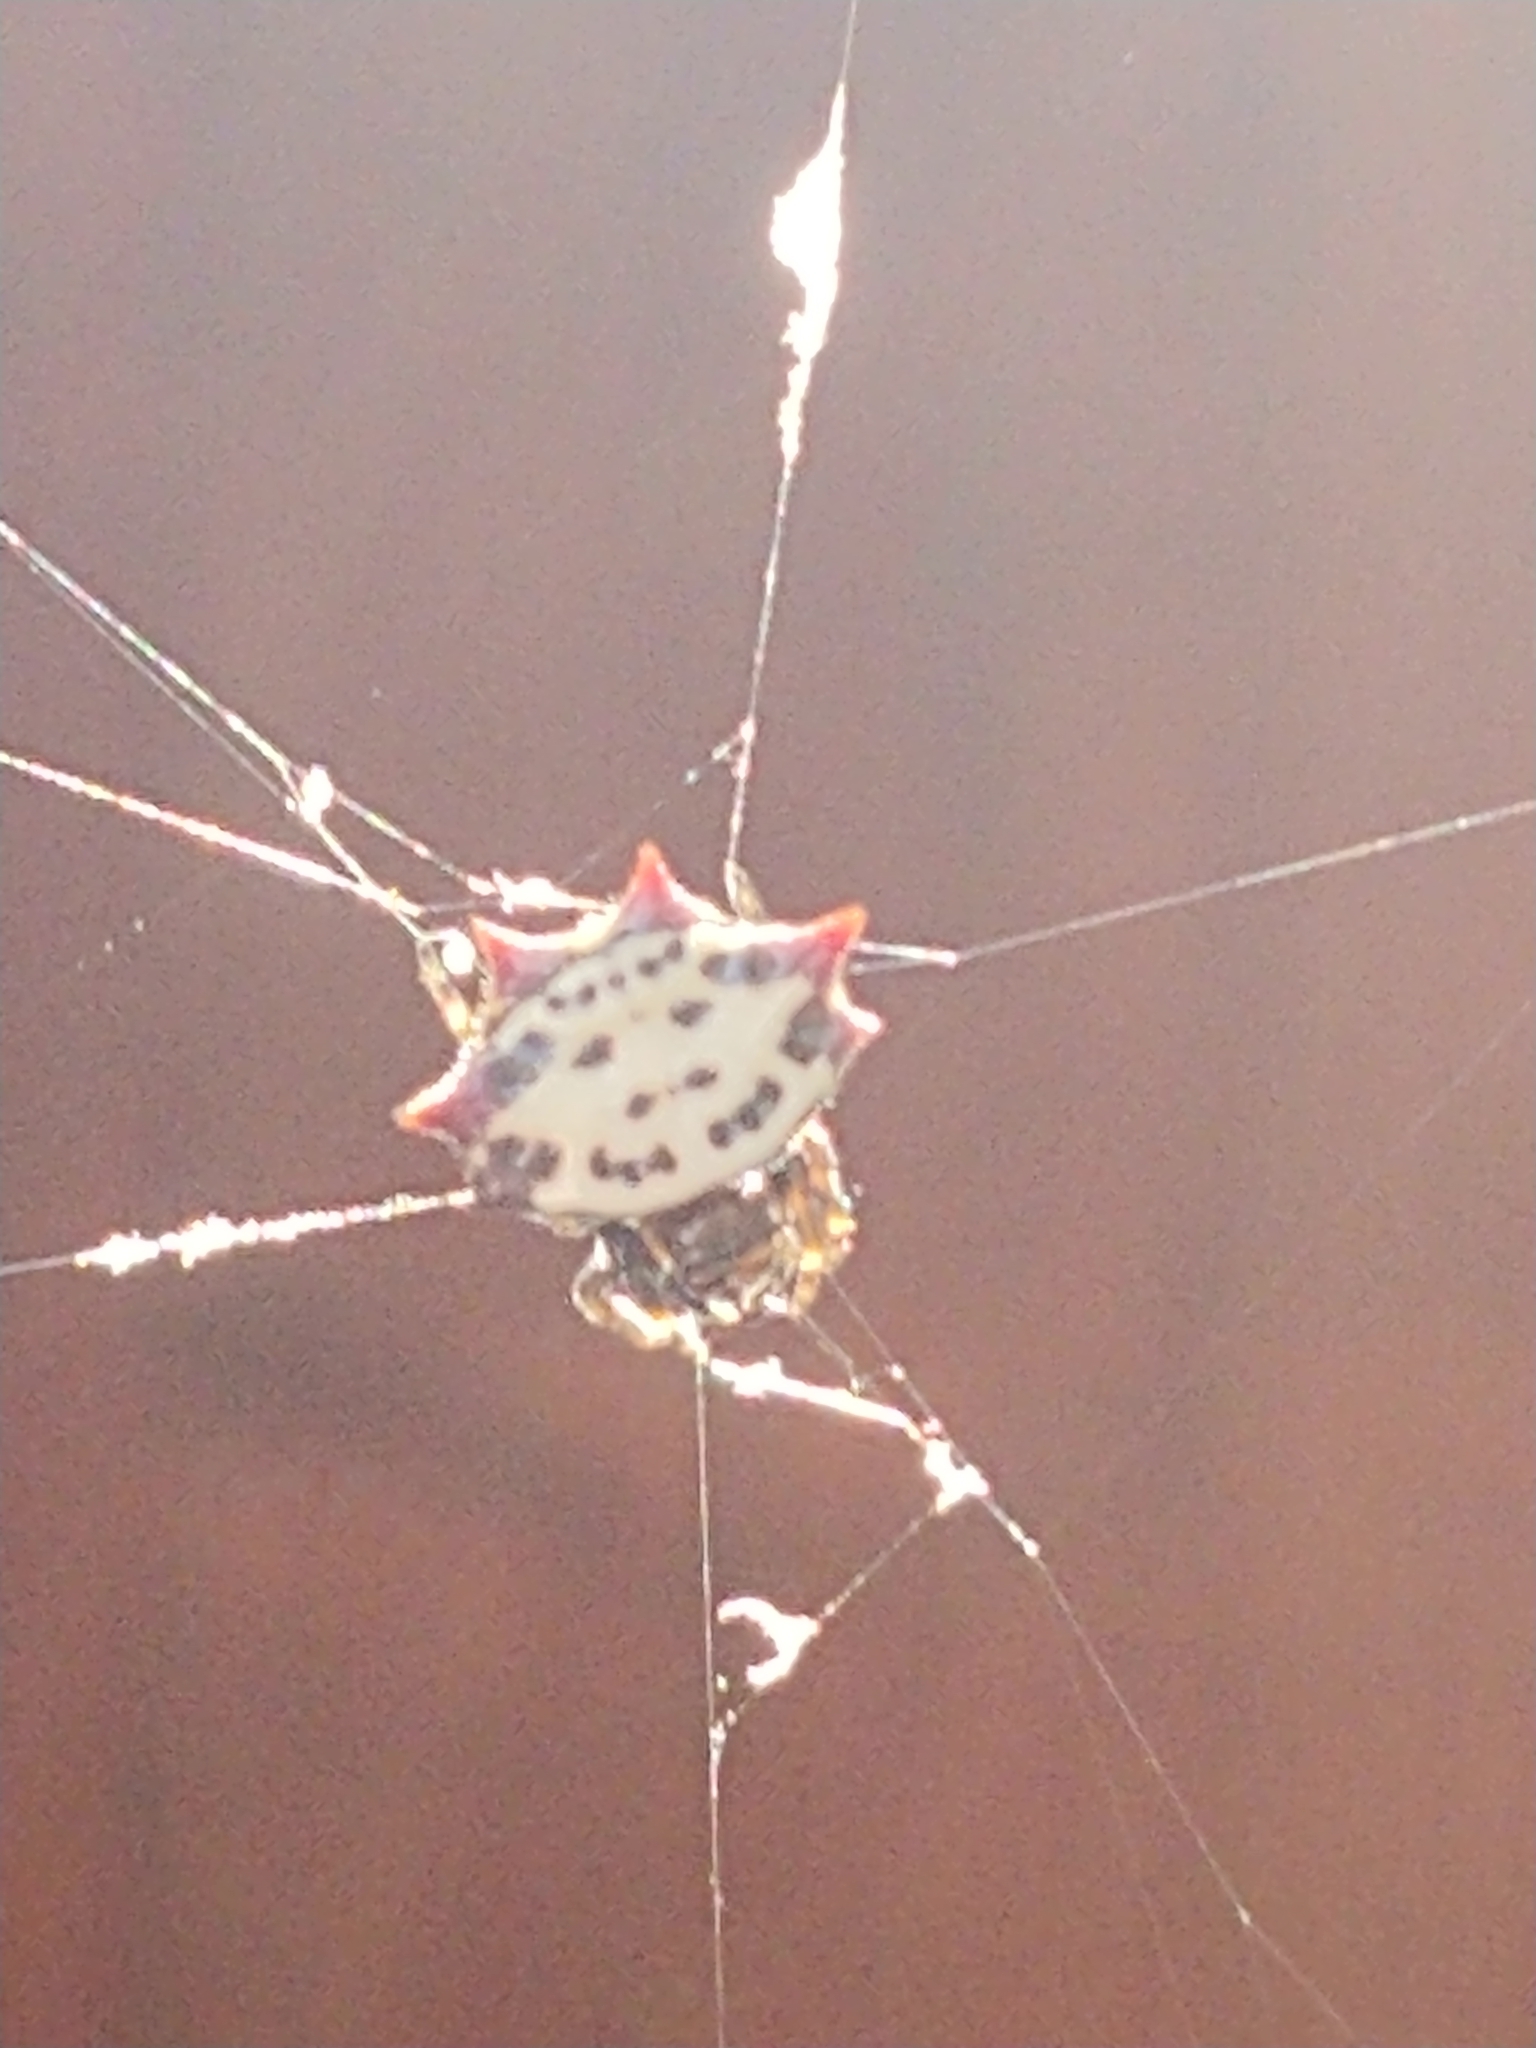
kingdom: Animalia
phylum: Arthropoda
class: Arachnida
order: Araneae
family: Araneidae
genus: Gasteracantha
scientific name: Gasteracantha cancriformis
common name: Orb weavers
